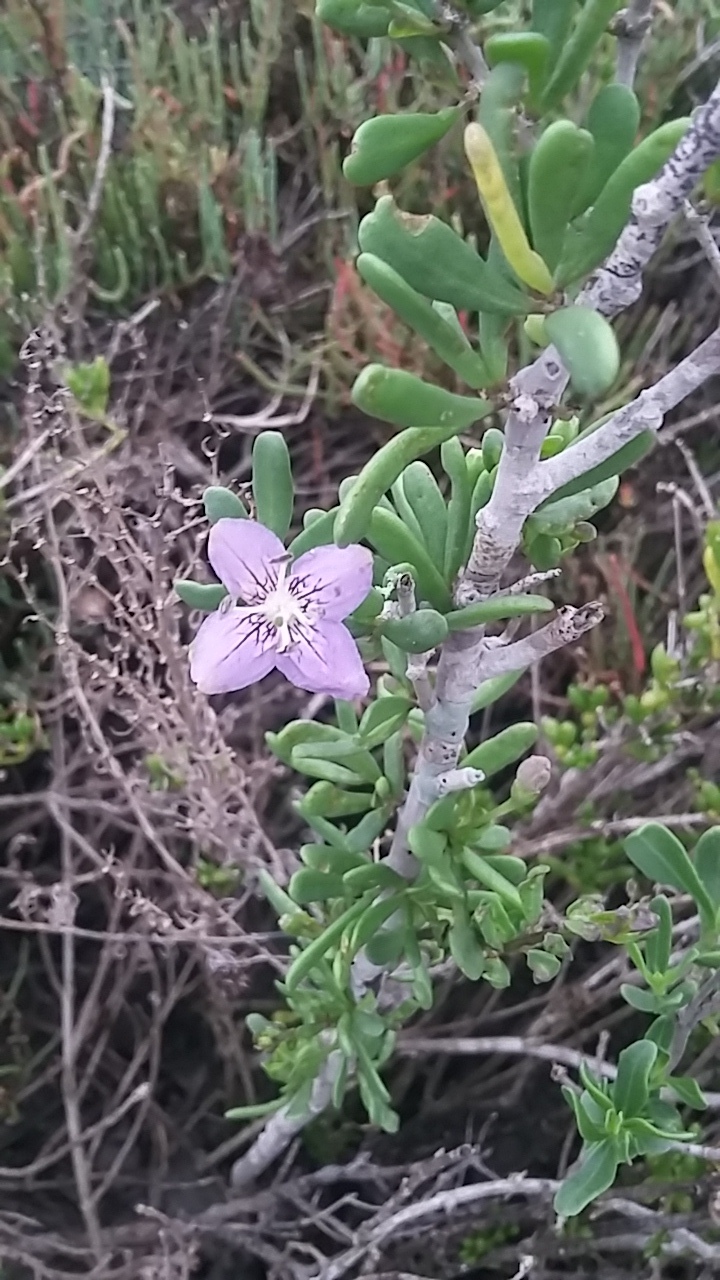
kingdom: Plantae
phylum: Tracheophyta
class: Magnoliopsida
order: Solanales
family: Solanaceae
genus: Lycium
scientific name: Lycium carolinianum
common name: Christmasberry
